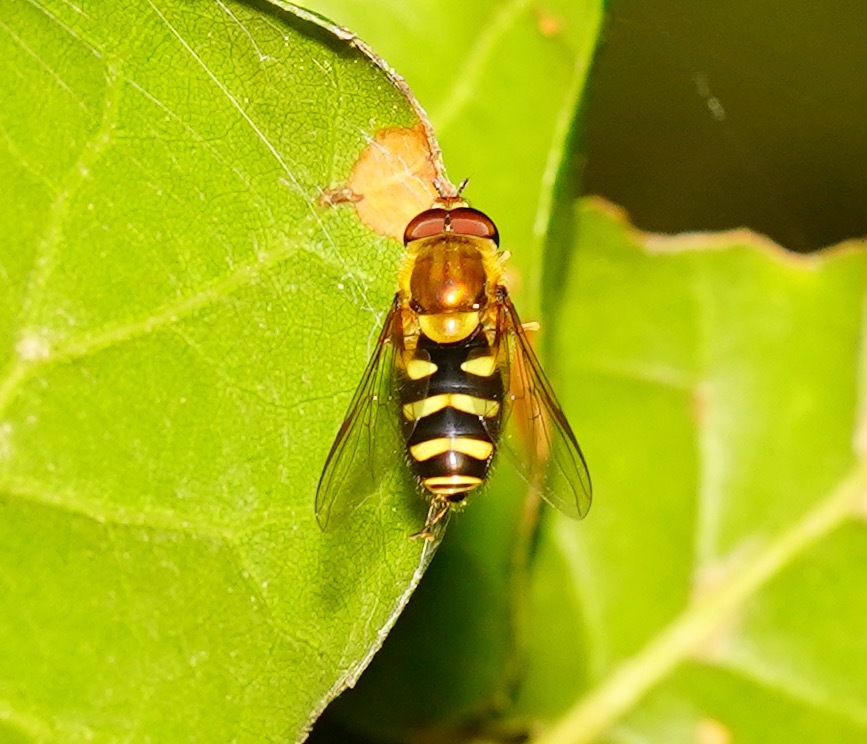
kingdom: Animalia
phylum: Arthropoda
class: Insecta
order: Diptera
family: Syrphidae
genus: Syrphus
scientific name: Syrphus opinator
